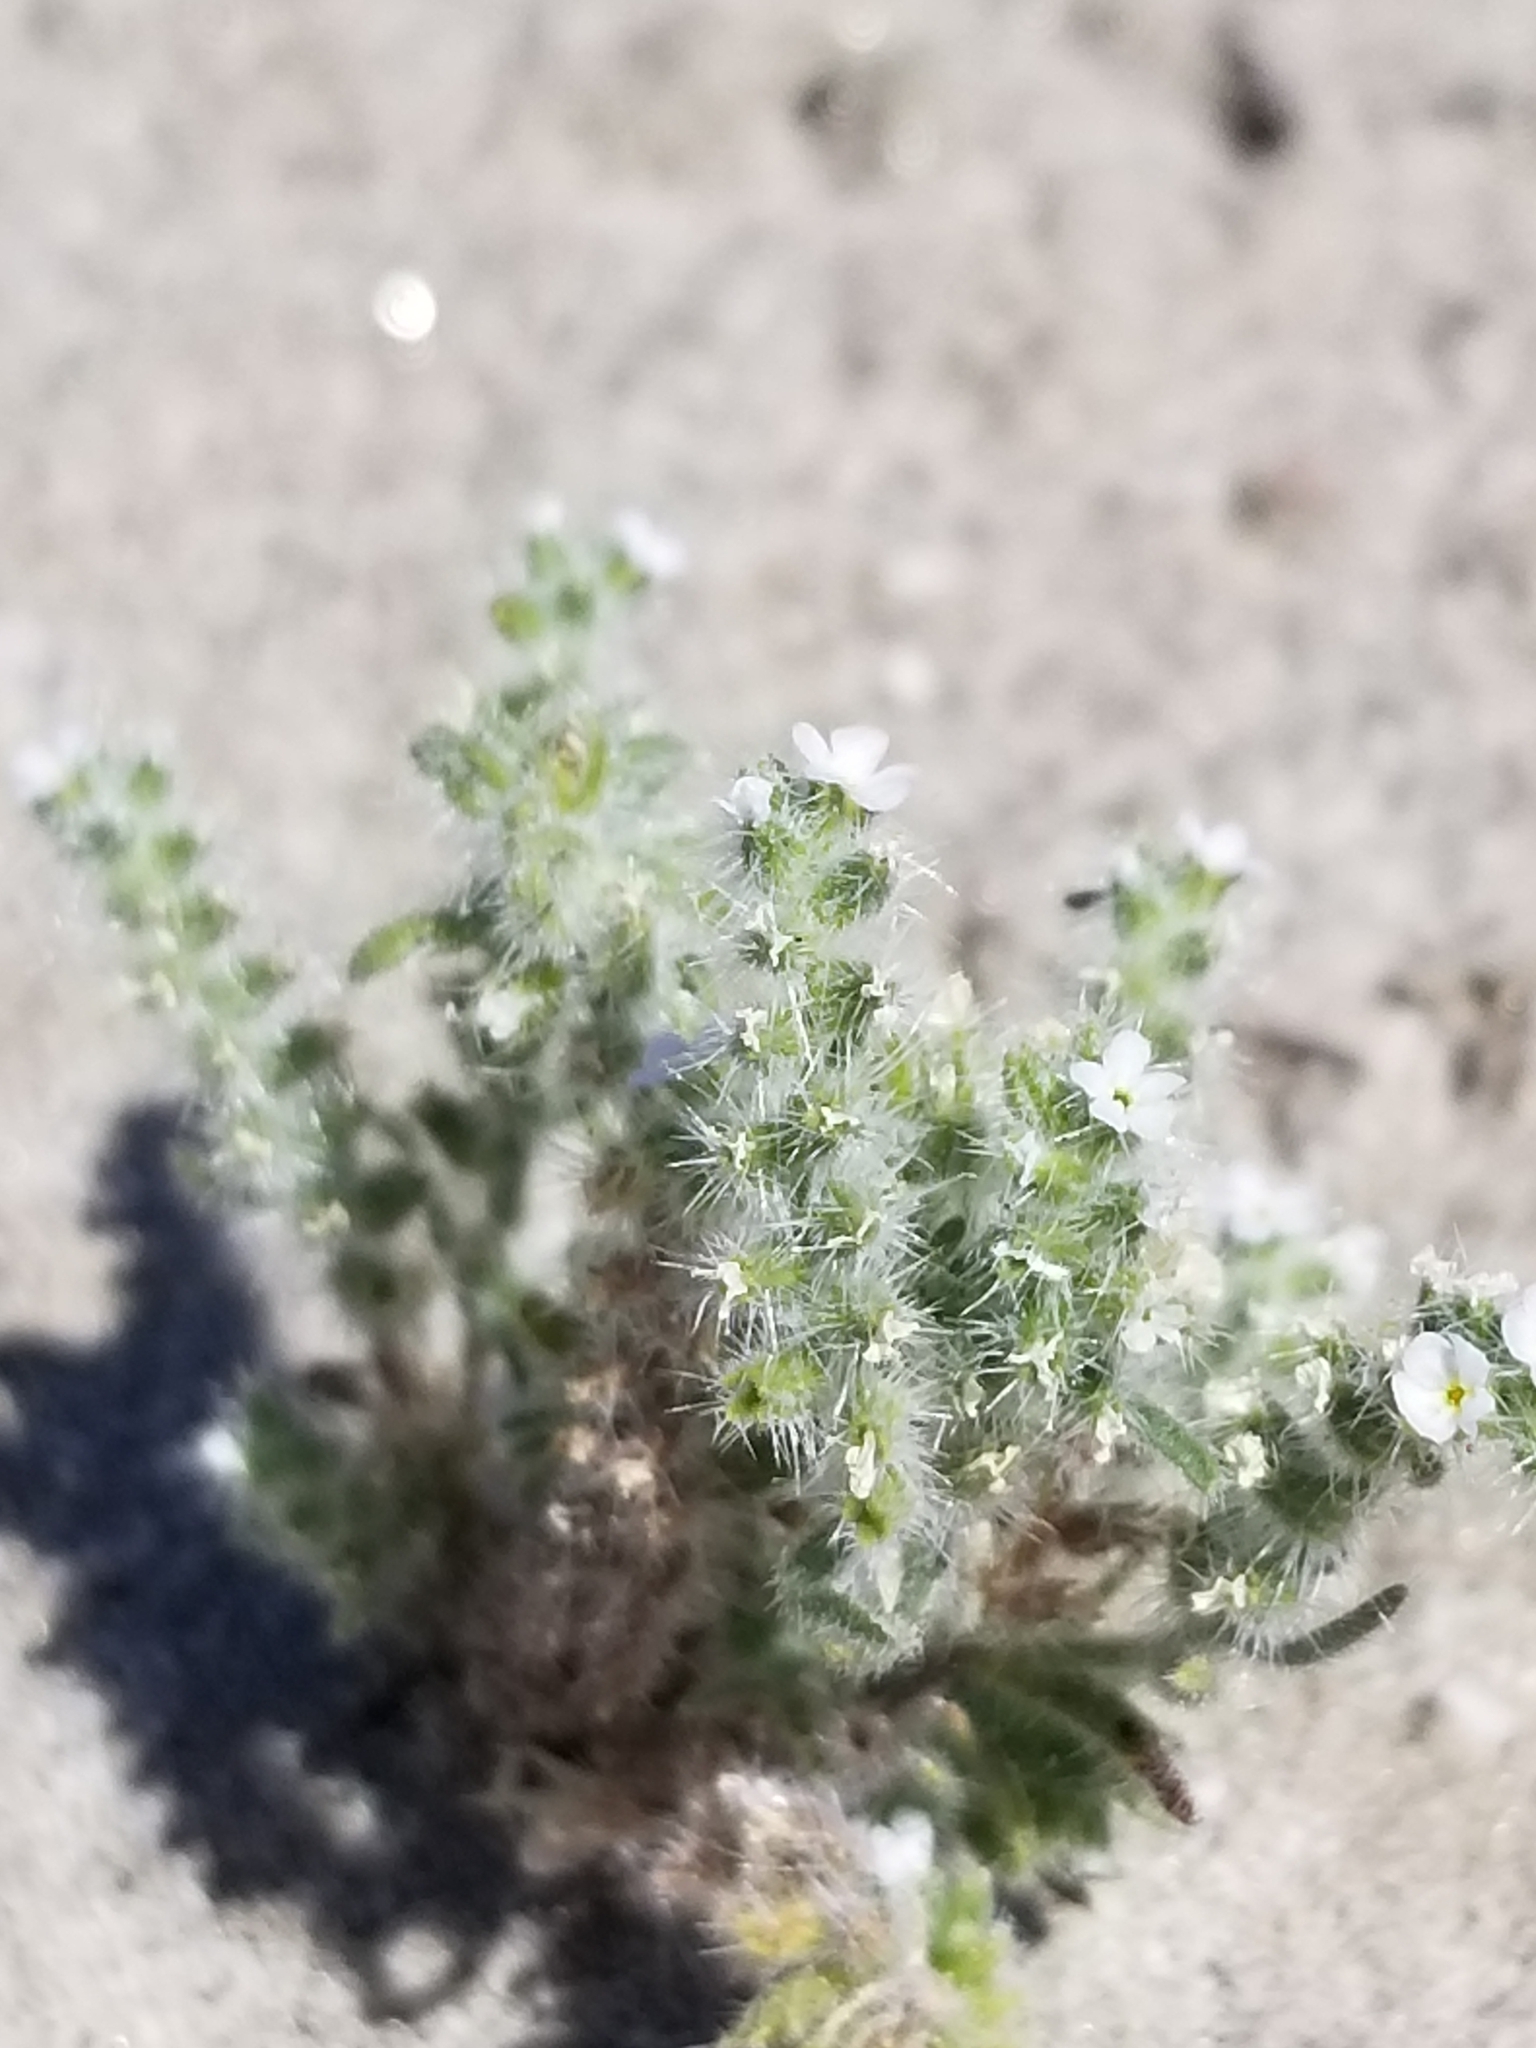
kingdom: Plantae
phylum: Tracheophyta
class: Magnoliopsida
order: Boraginales
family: Boraginaceae
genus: Johnstonella
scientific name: Johnstonella angustifolia
